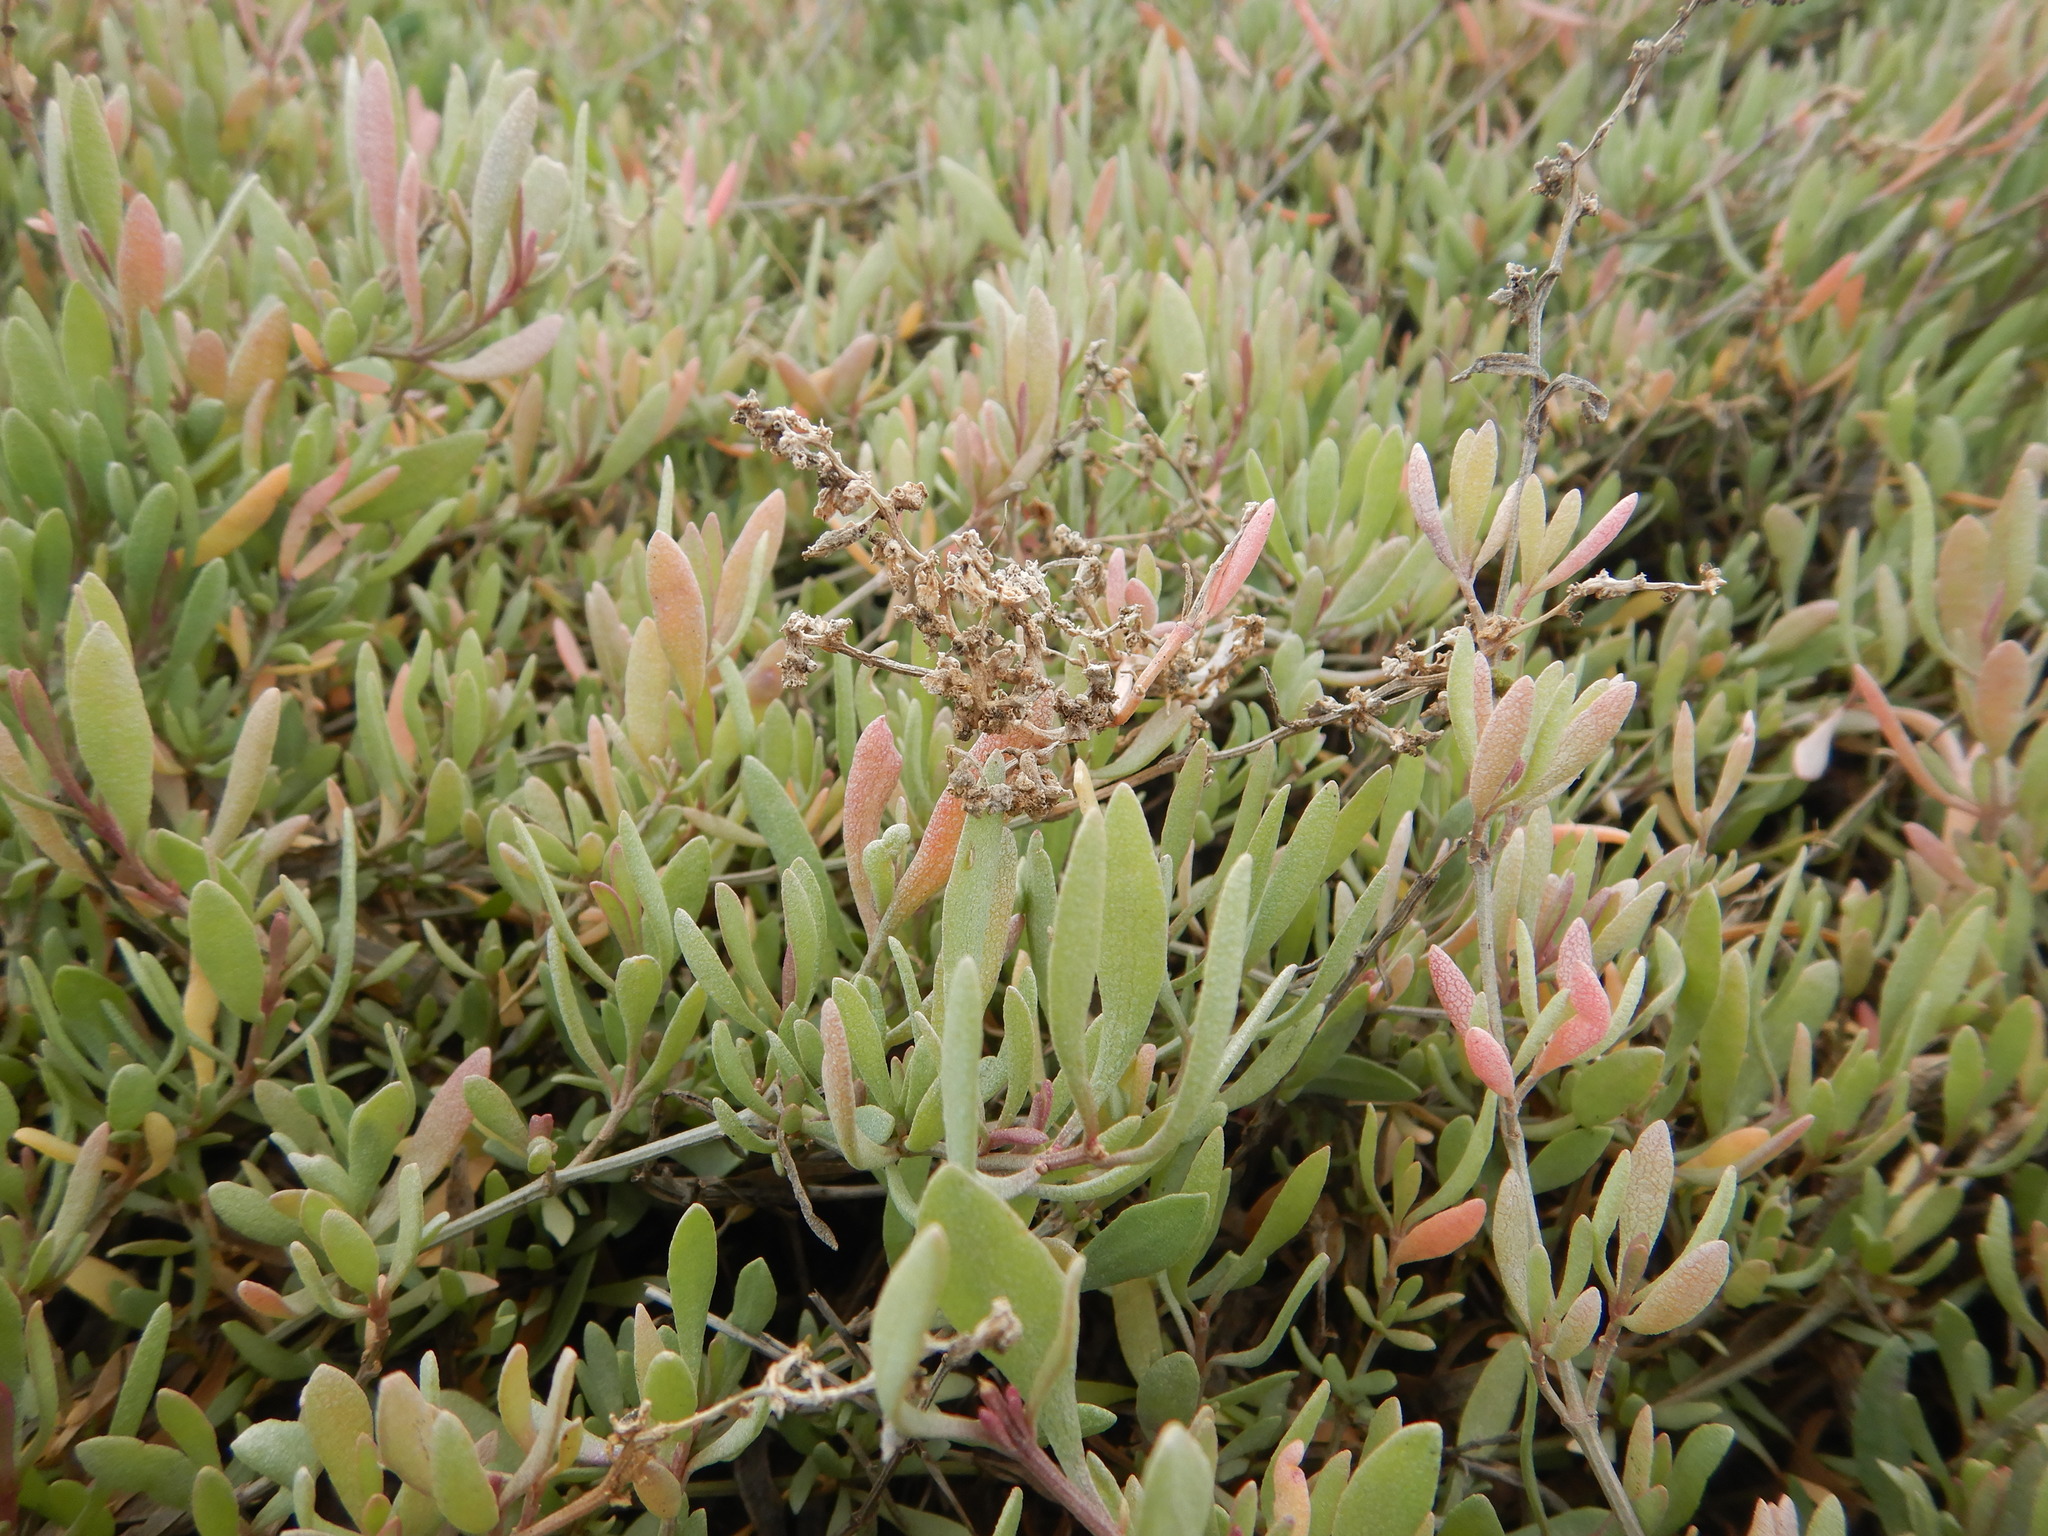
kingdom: Plantae
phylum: Tracheophyta
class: Magnoliopsida
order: Caryophyllales
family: Amaranthaceae
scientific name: Amaranthaceae
